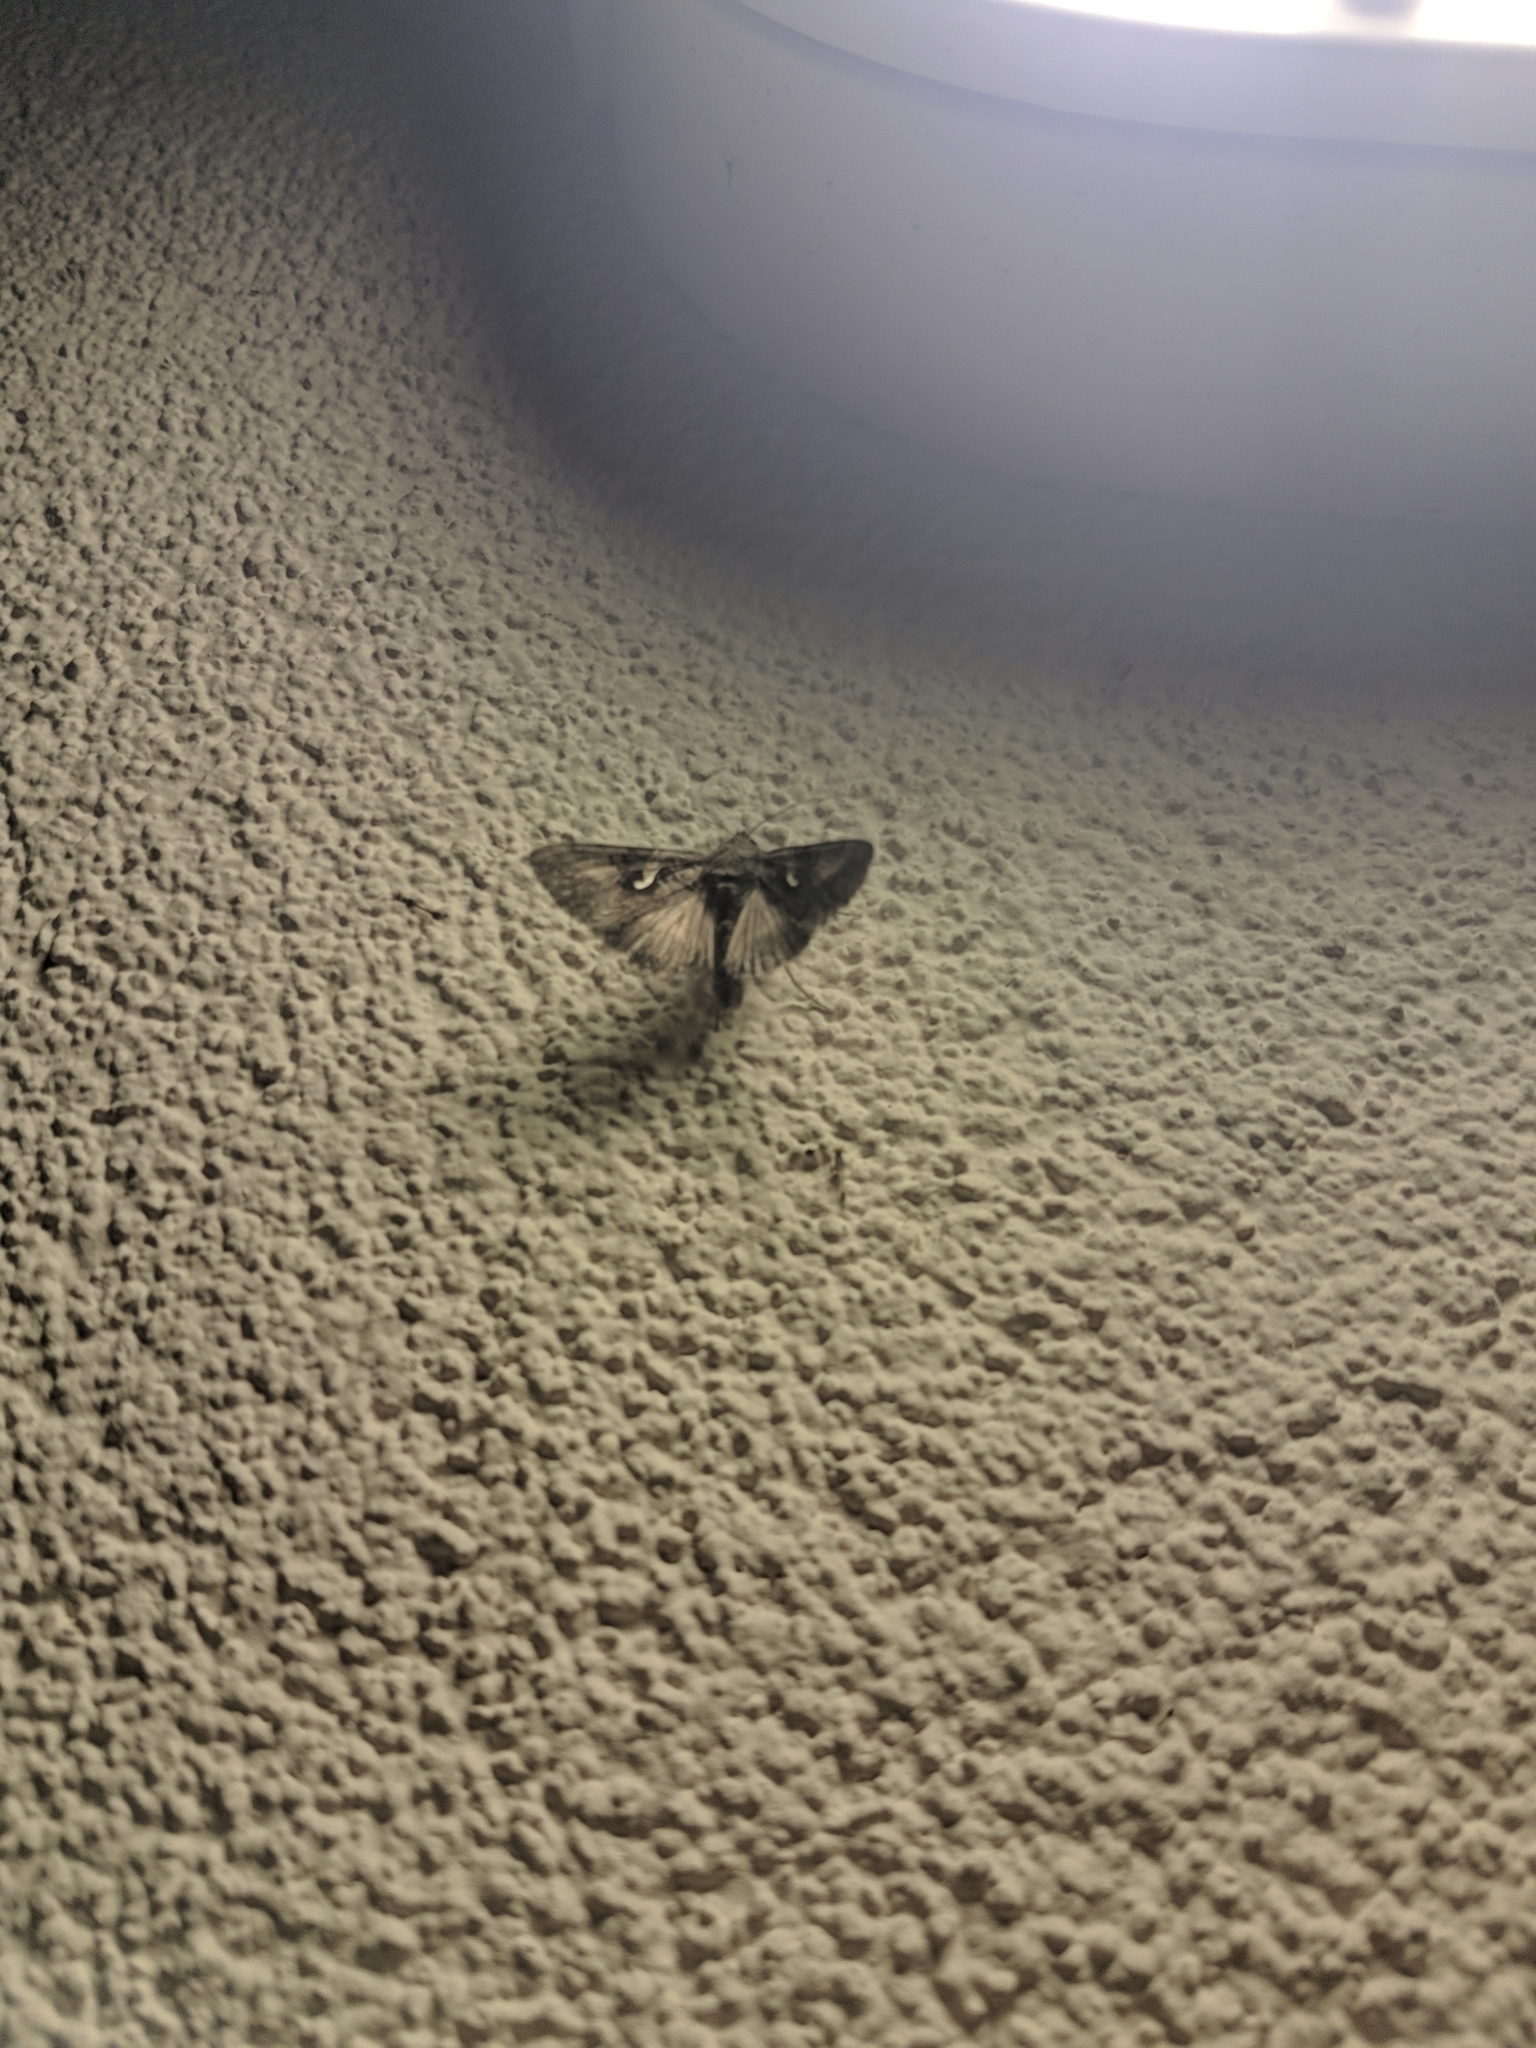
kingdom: Animalia
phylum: Arthropoda
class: Insecta
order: Lepidoptera
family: Noctuidae
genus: Autographa
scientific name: Autographa gamma
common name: Silver y
